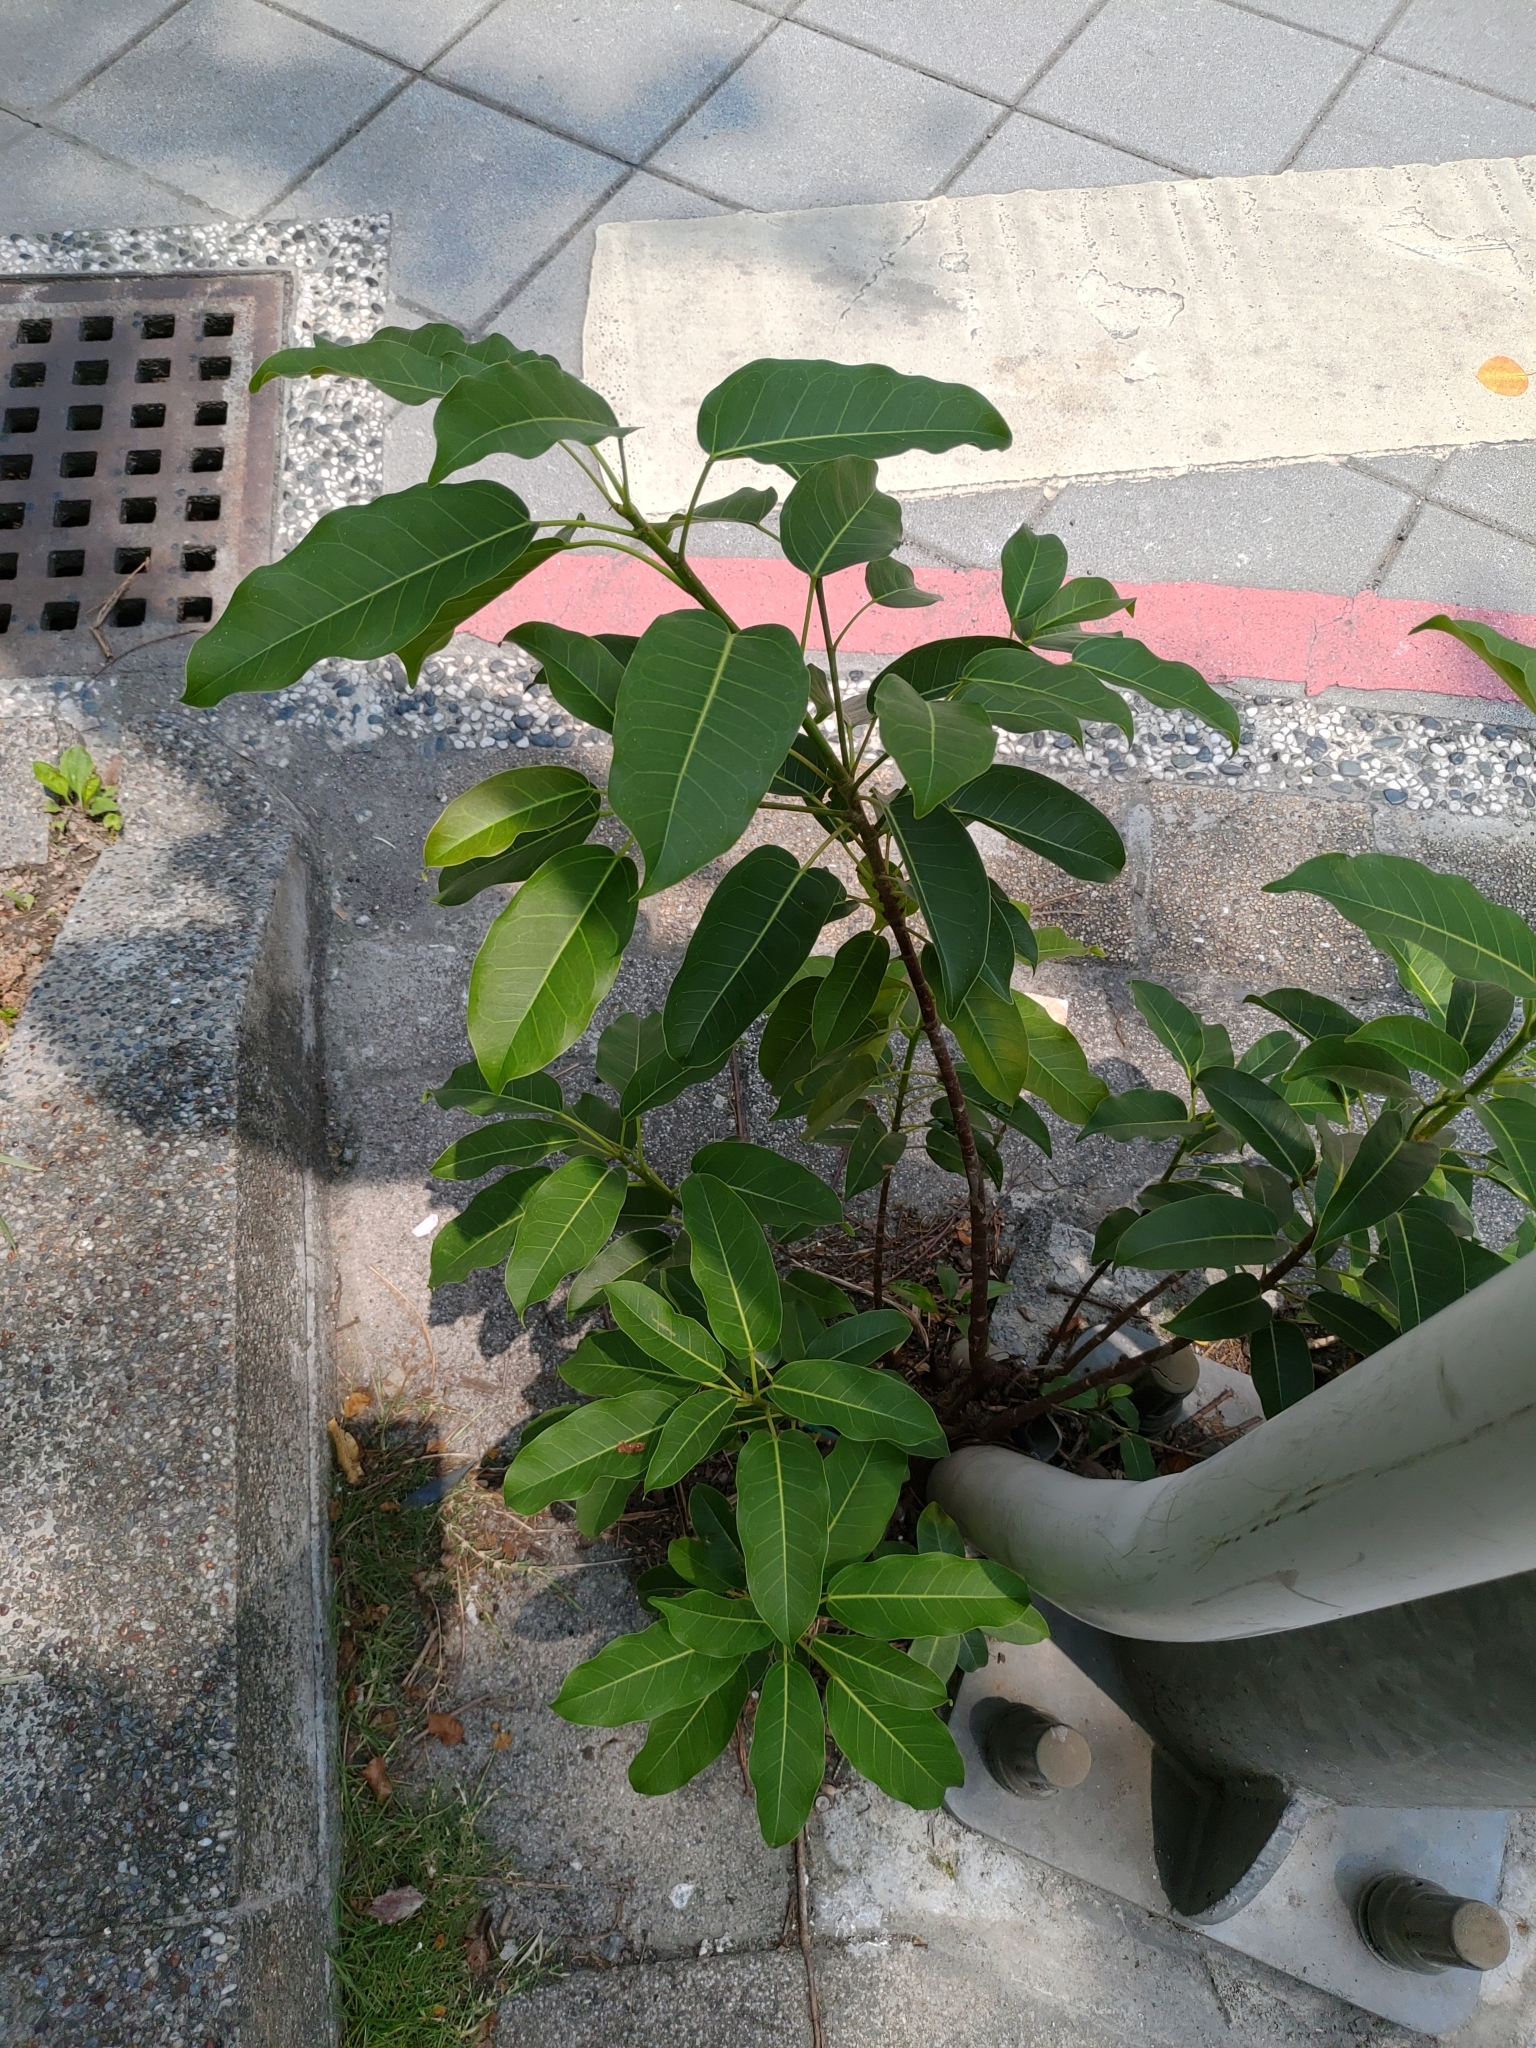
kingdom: Plantae
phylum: Tracheophyta
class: Magnoliopsida
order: Rosales
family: Moraceae
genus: Ficus
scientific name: Ficus subpisocarpa
